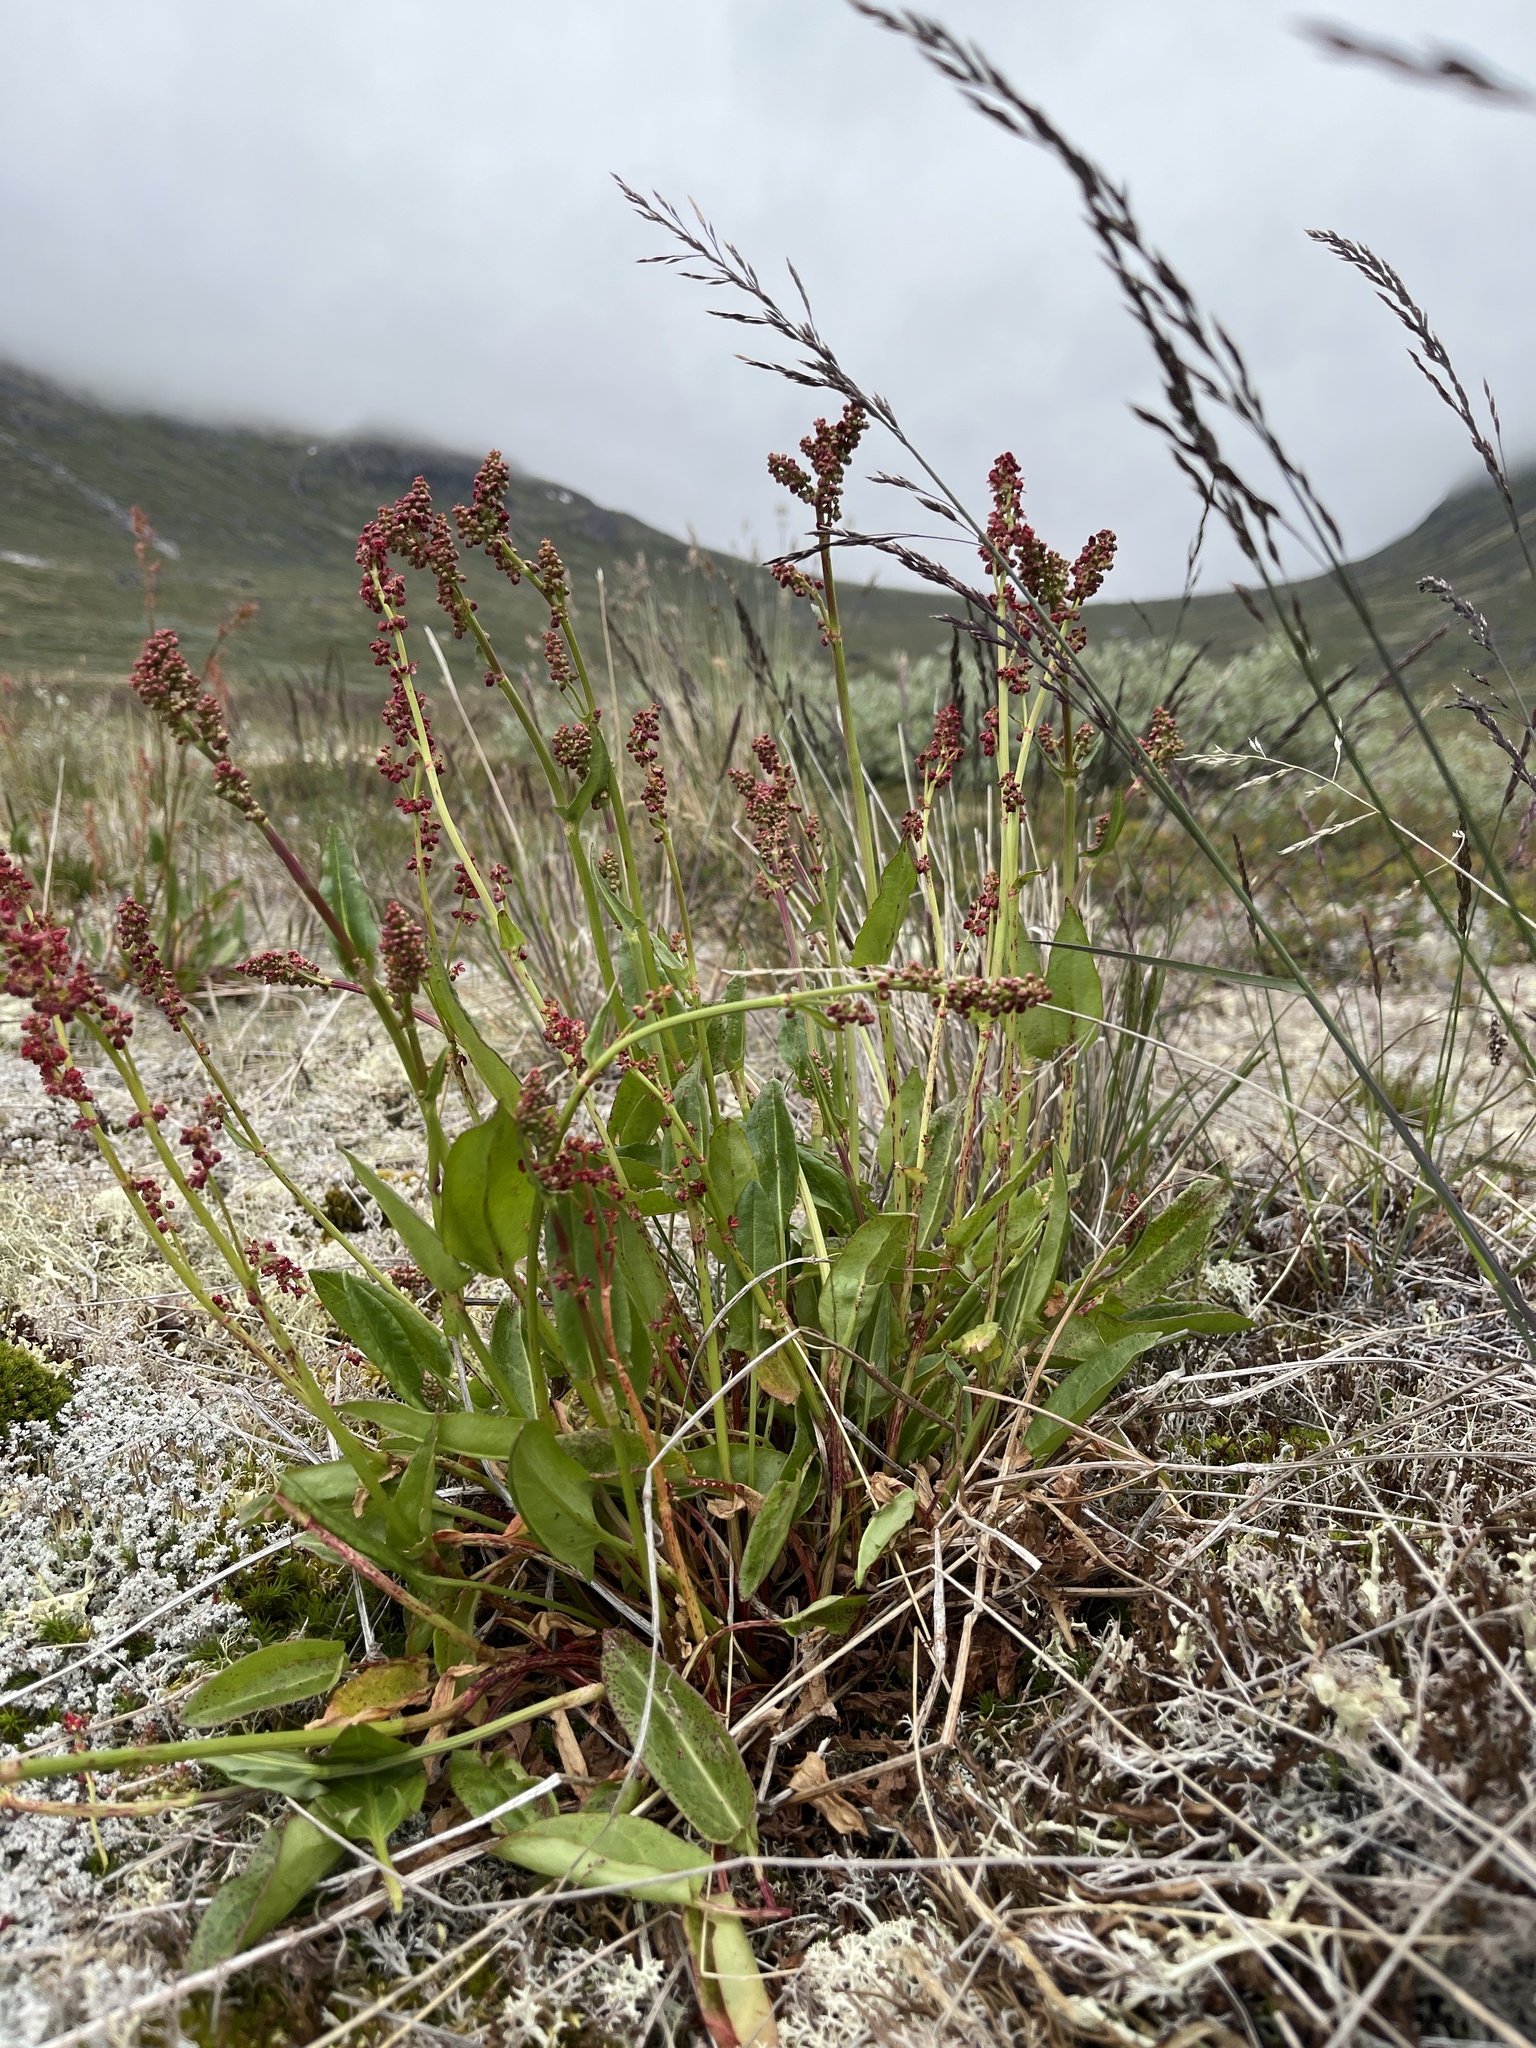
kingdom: Plantae
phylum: Tracheophyta
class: Magnoliopsida
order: Caryophyllales
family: Polygonaceae
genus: Rumex
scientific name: Rumex acetosella
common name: Common sheep sorrel
